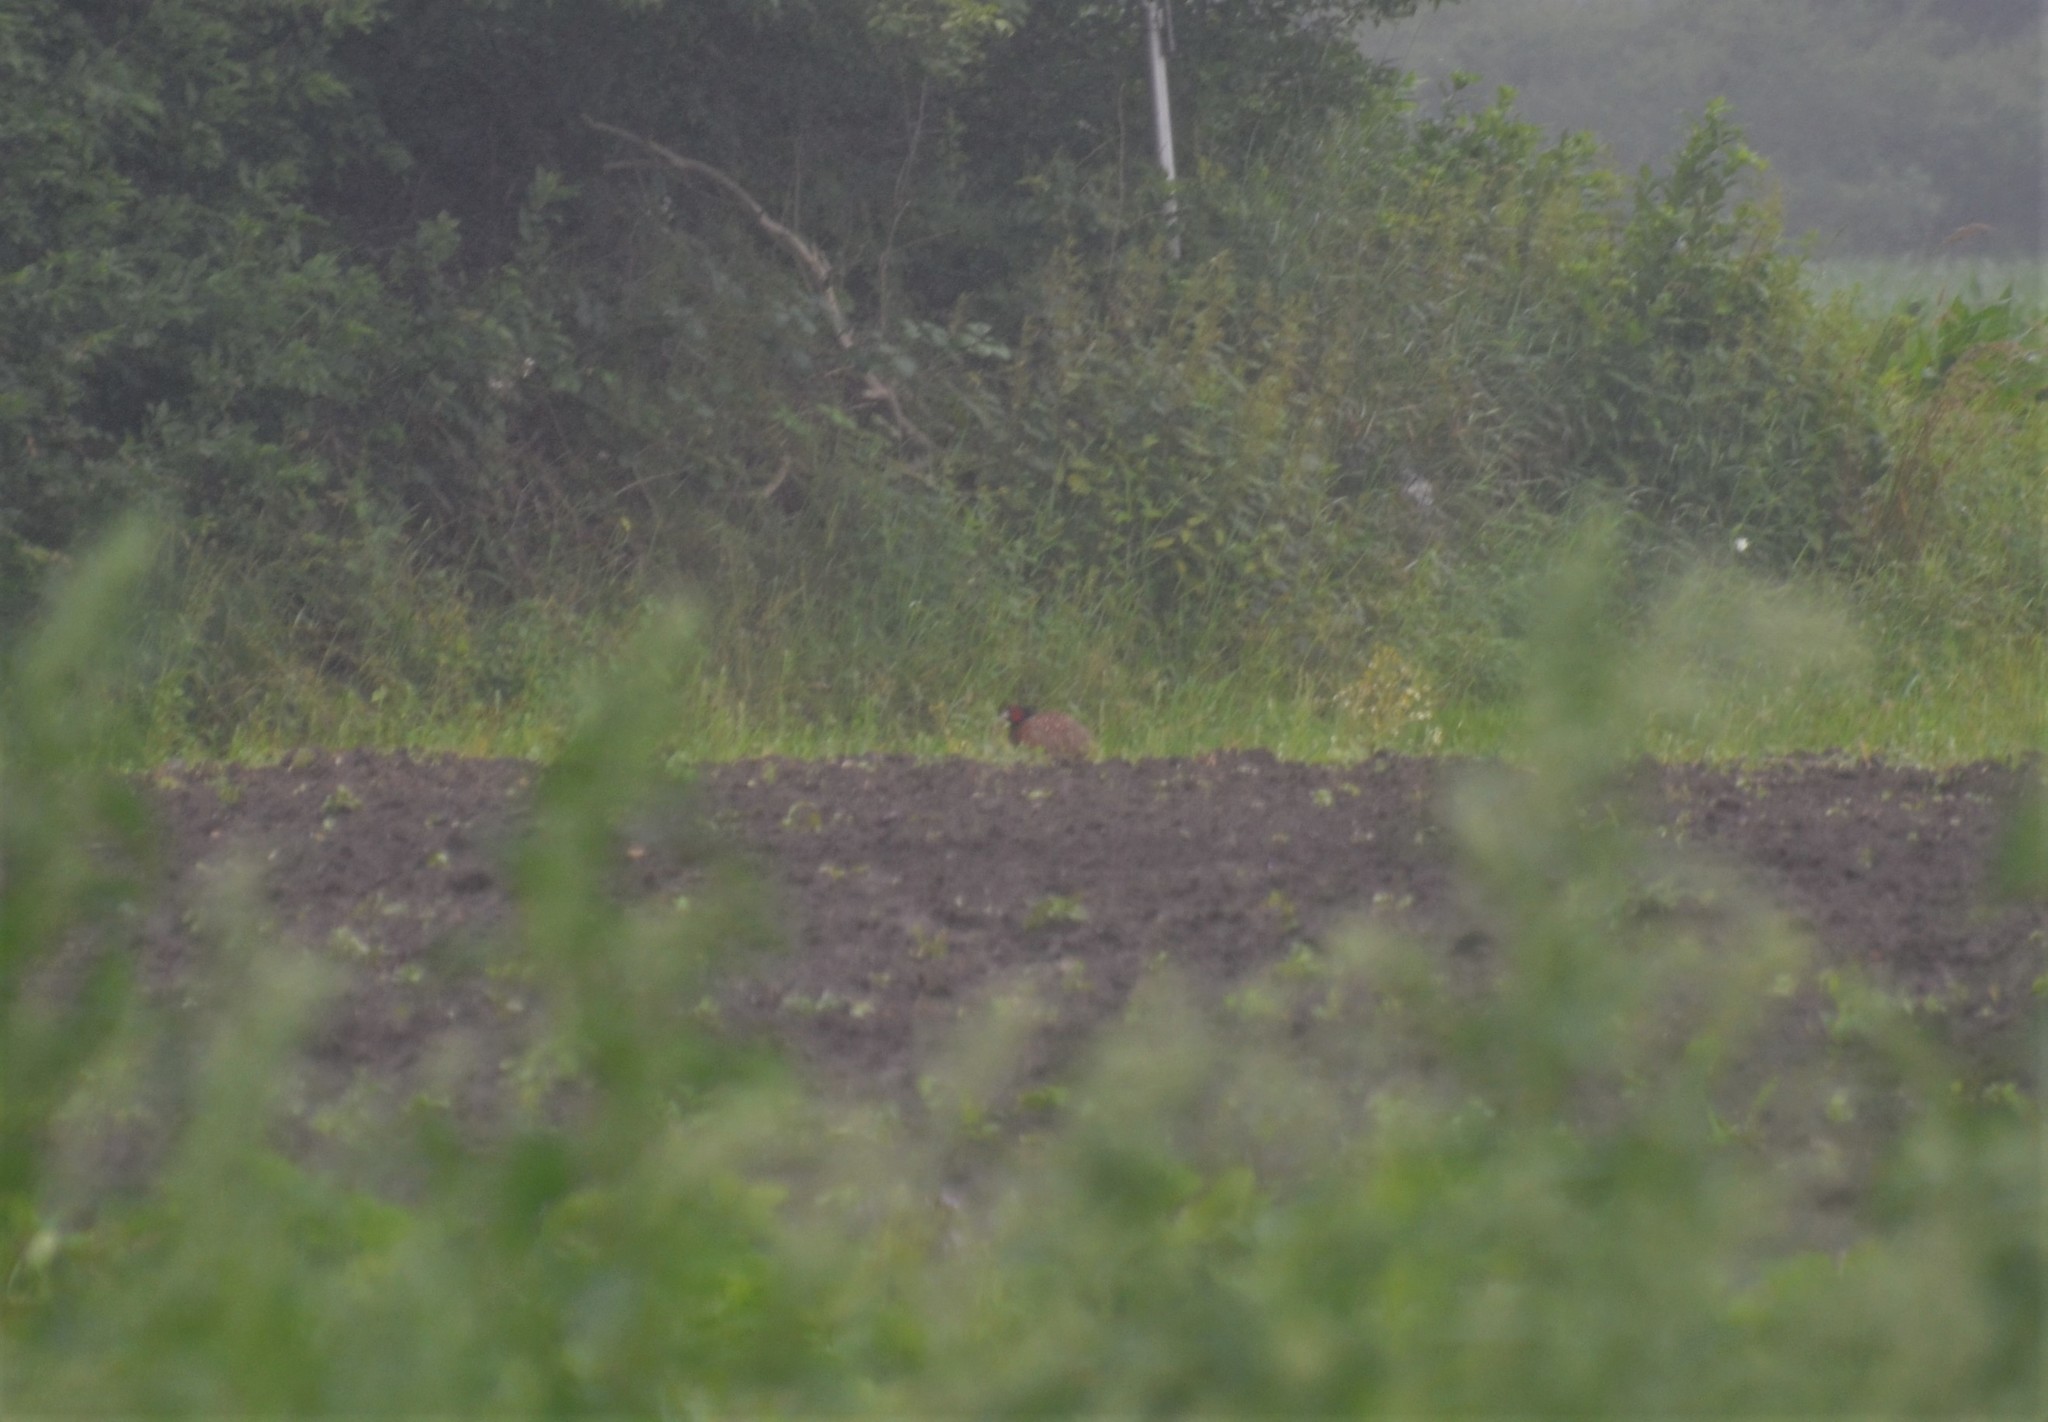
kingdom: Animalia
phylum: Chordata
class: Aves
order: Galliformes
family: Phasianidae
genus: Phasianus
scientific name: Phasianus colchicus
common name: Common pheasant
